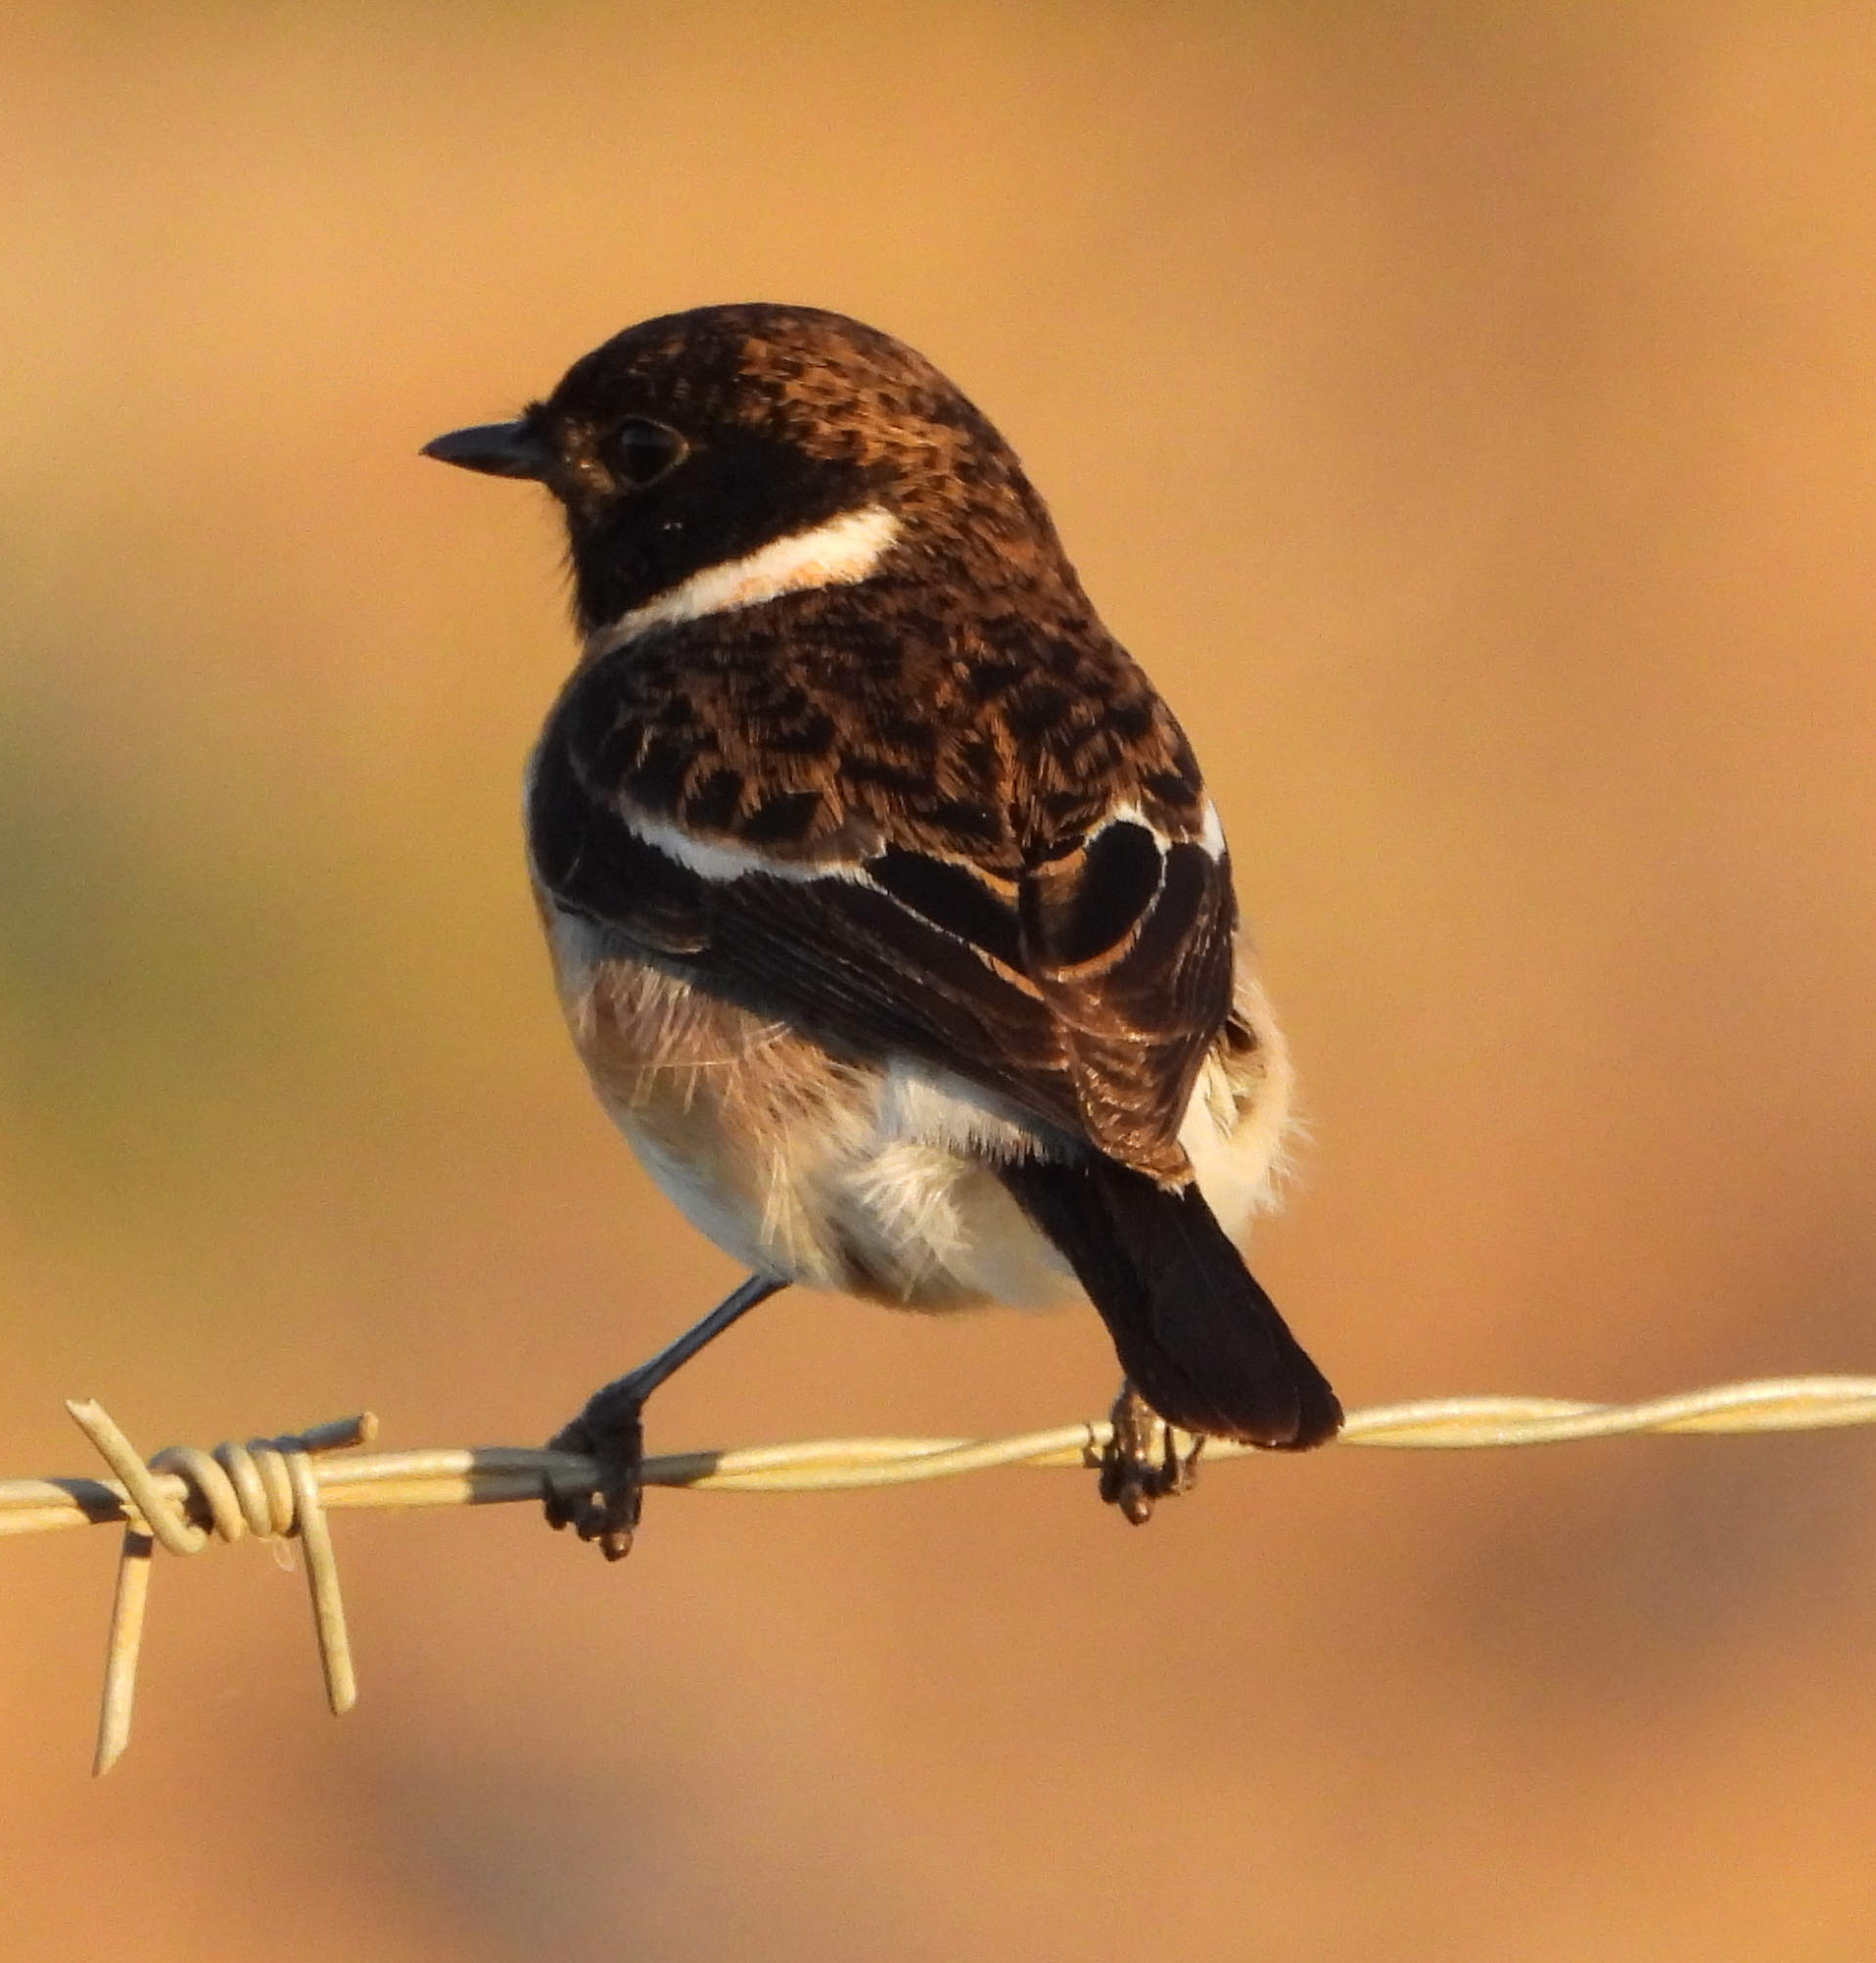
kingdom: Animalia
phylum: Chordata
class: Aves
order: Passeriformes
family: Muscicapidae
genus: Saxicola
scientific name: Saxicola torquatus
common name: African stonechat
